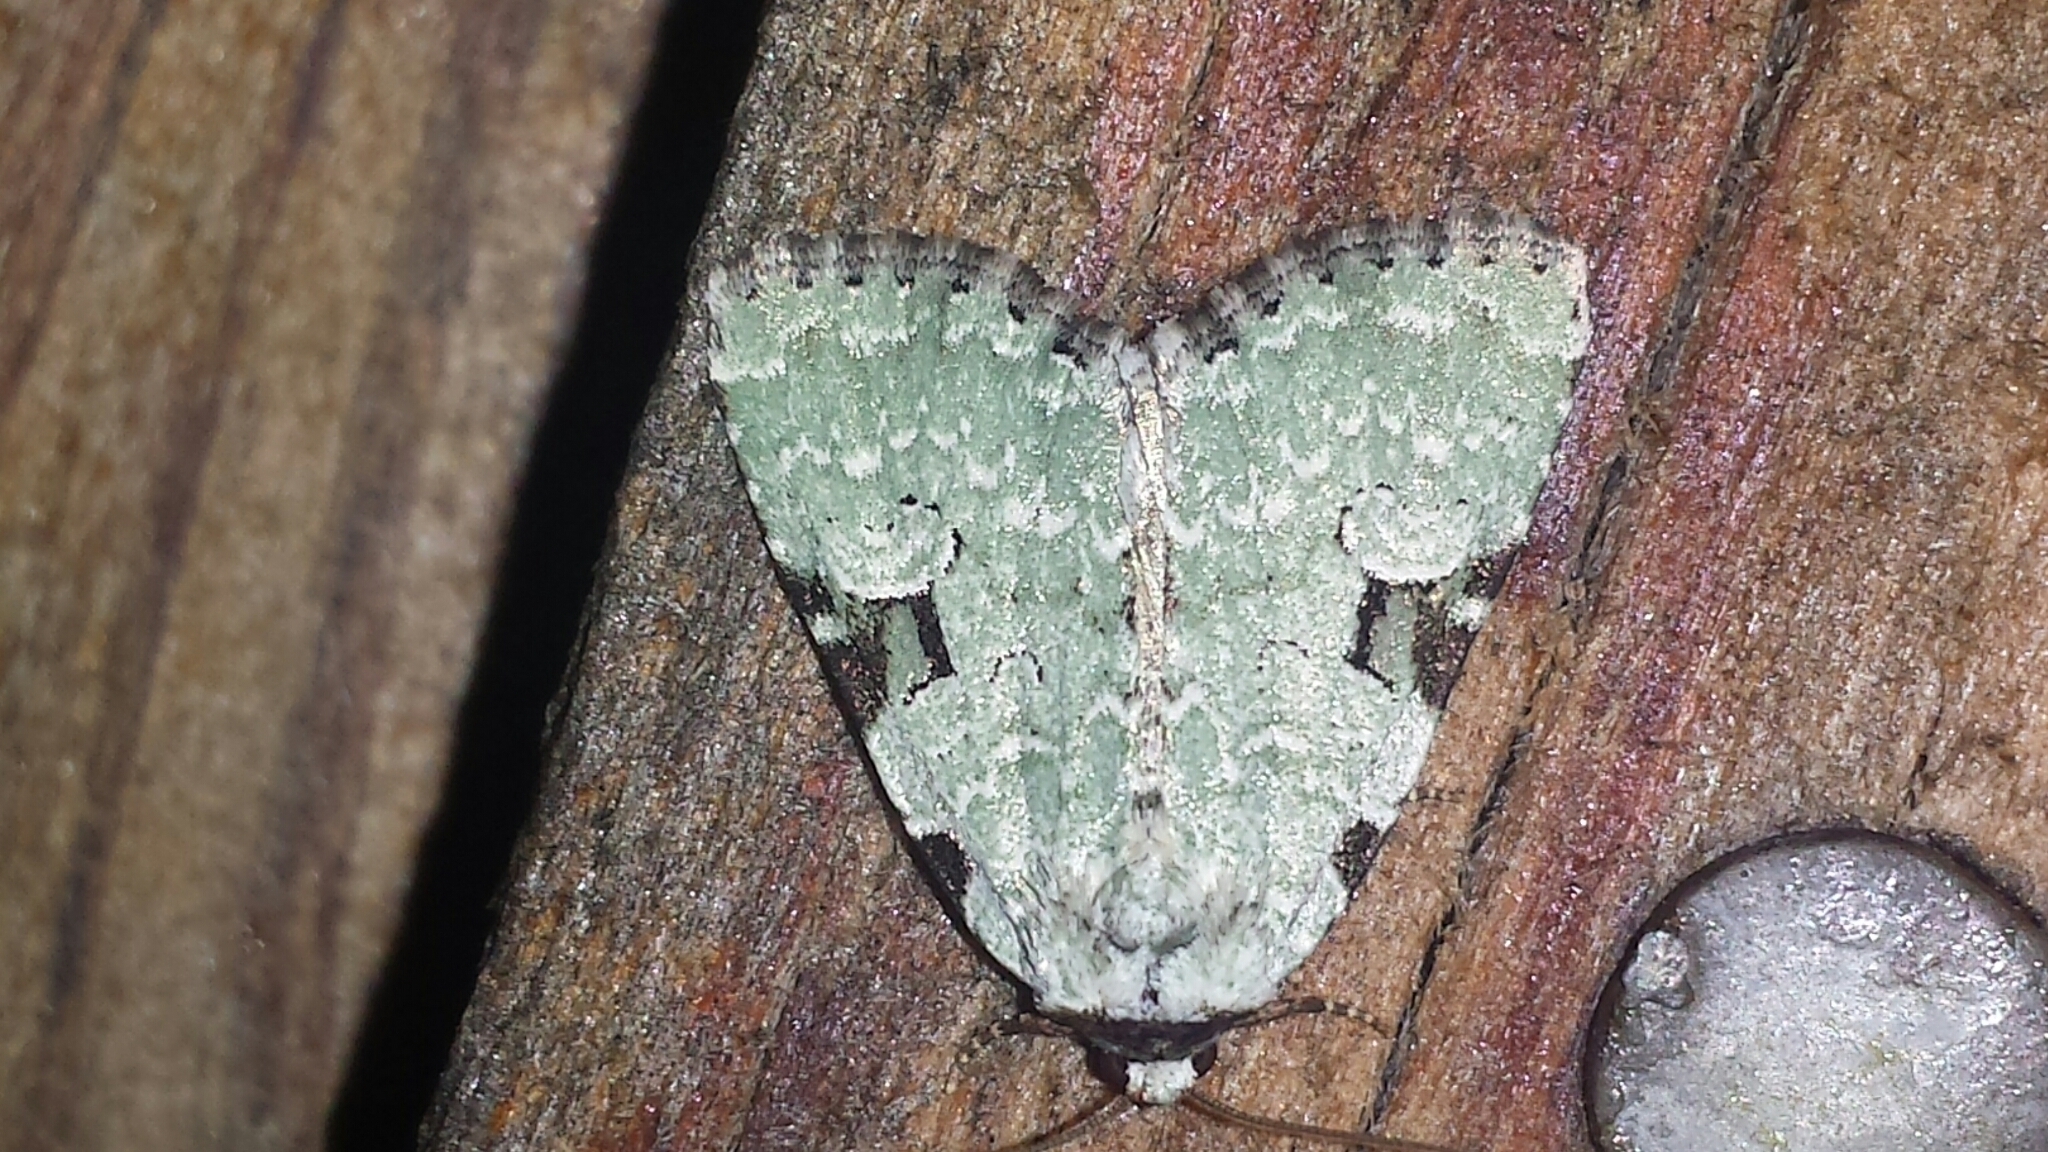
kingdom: Animalia
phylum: Arthropoda
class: Insecta
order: Lepidoptera
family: Noctuidae
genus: Leuconycta
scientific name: Leuconycta diphteroides
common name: Green leuconycta moth
